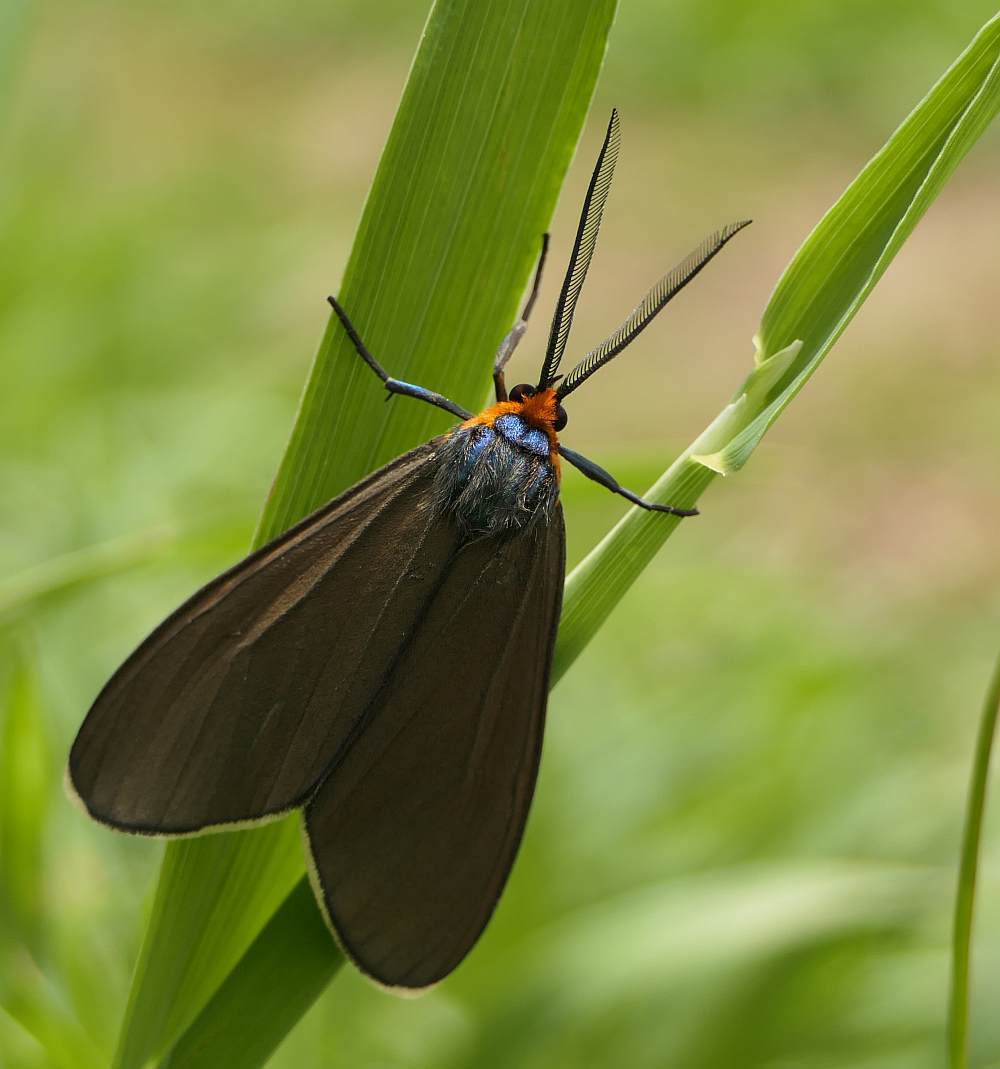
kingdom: Animalia
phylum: Arthropoda
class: Insecta
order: Lepidoptera
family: Erebidae
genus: Ctenucha
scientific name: Ctenucha virginica
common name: Virginia ctenucha moth
